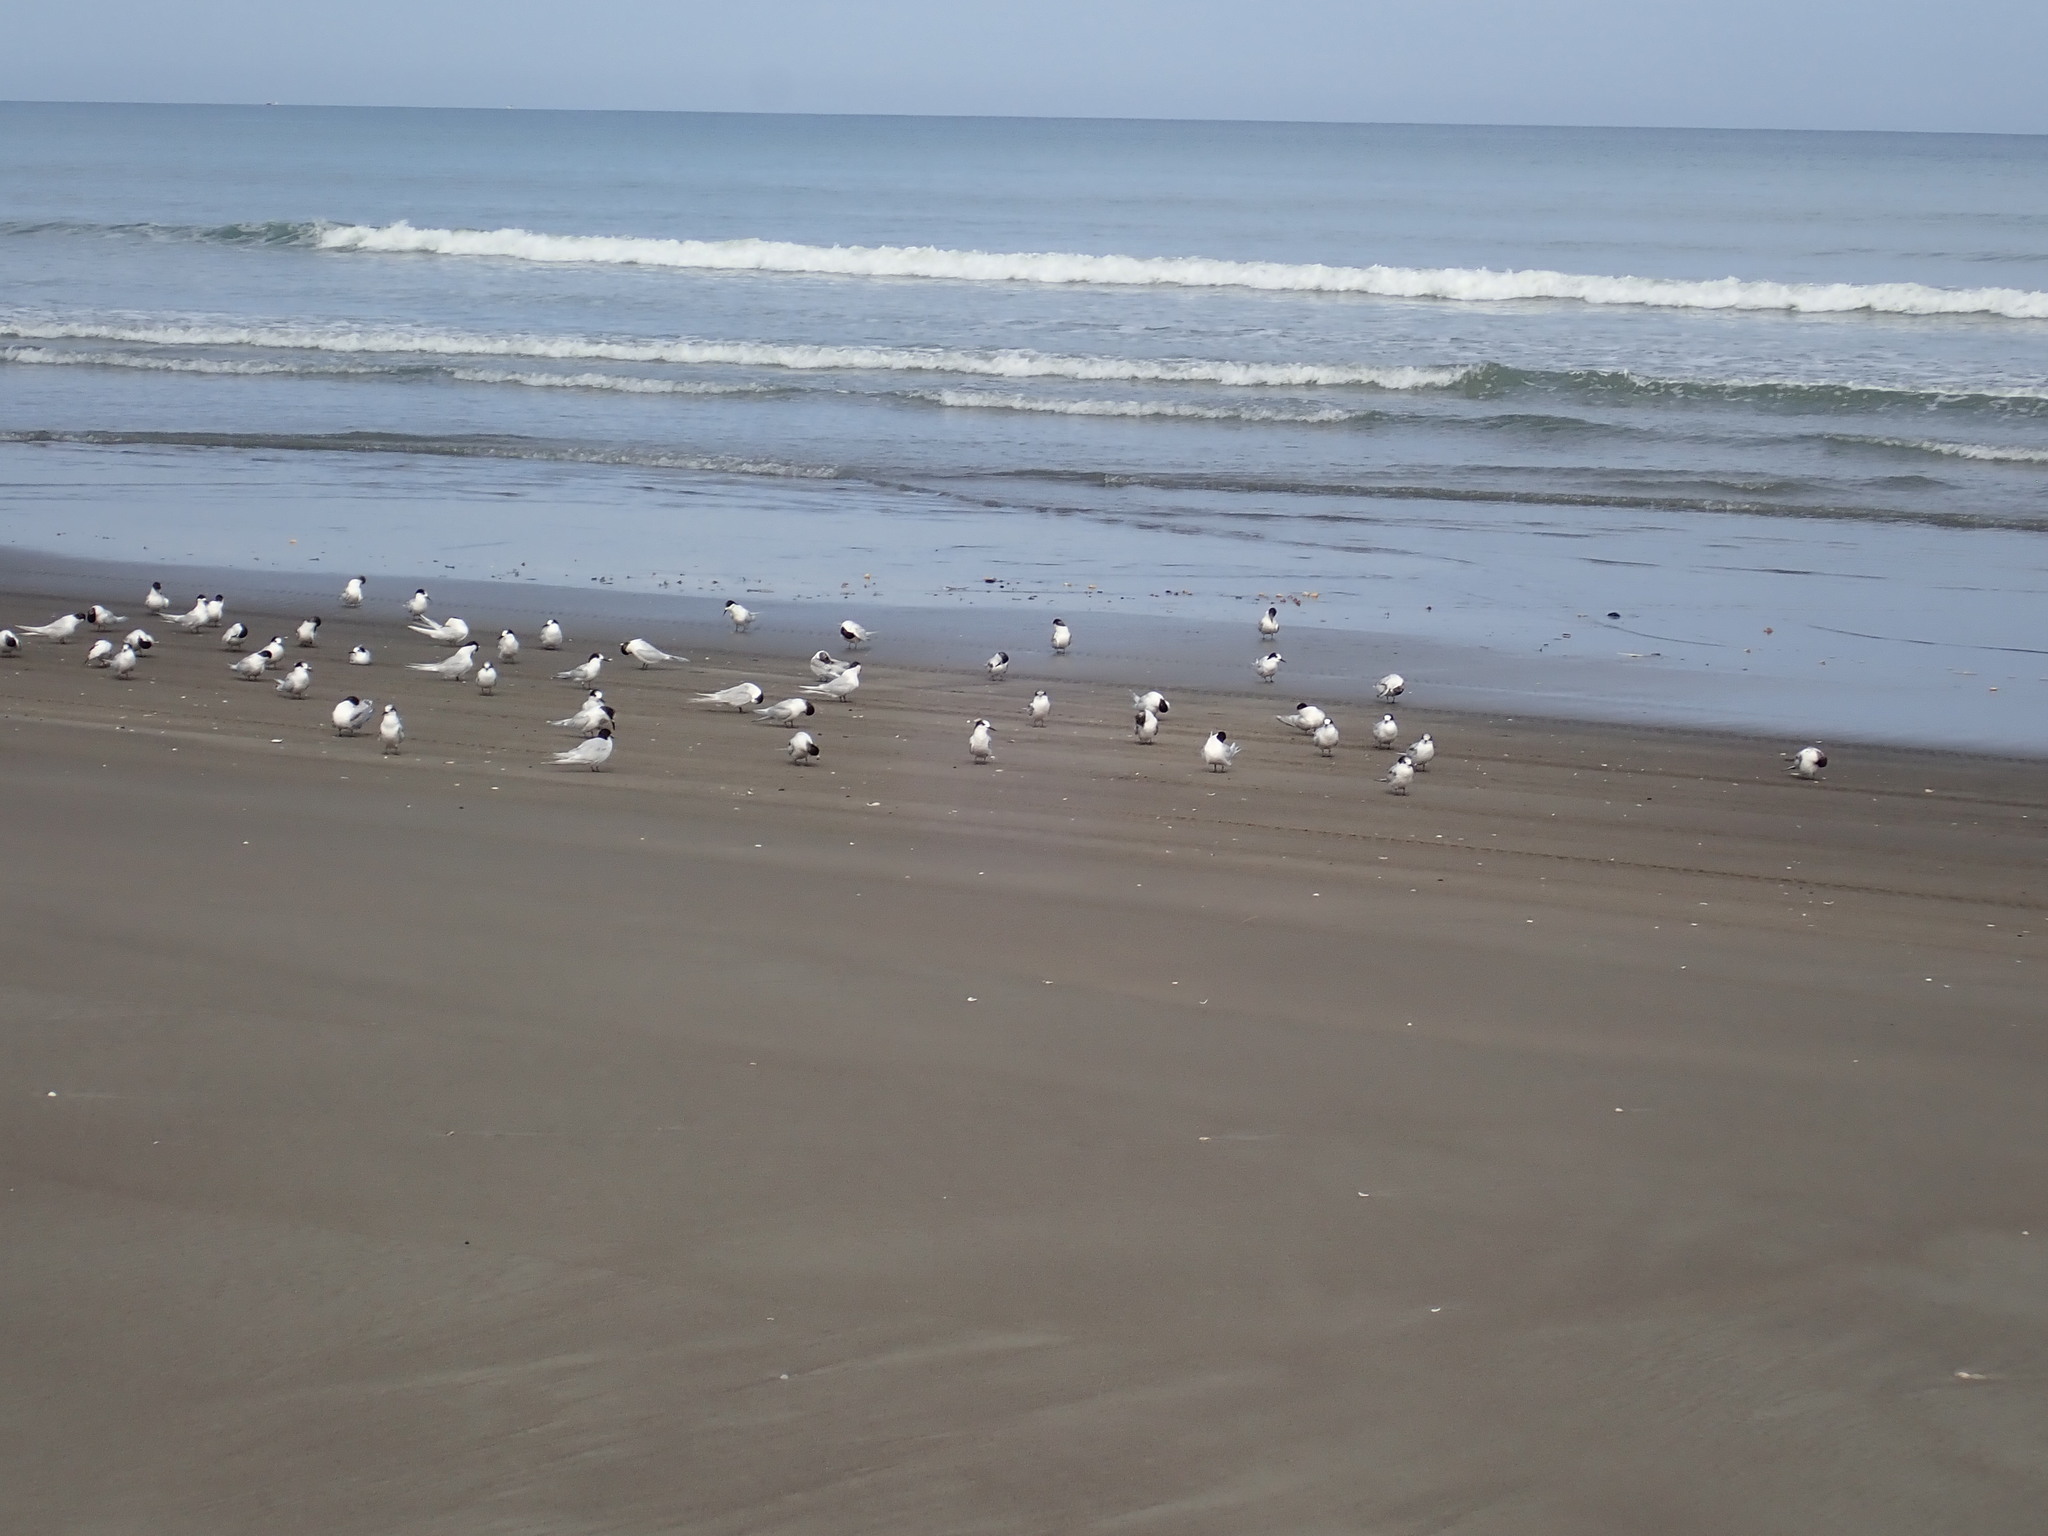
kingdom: Animalia
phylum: Chordata
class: Aves
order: Charadriiformes
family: Laridae
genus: Sterna
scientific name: Sterna striata
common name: White-fronted tern
